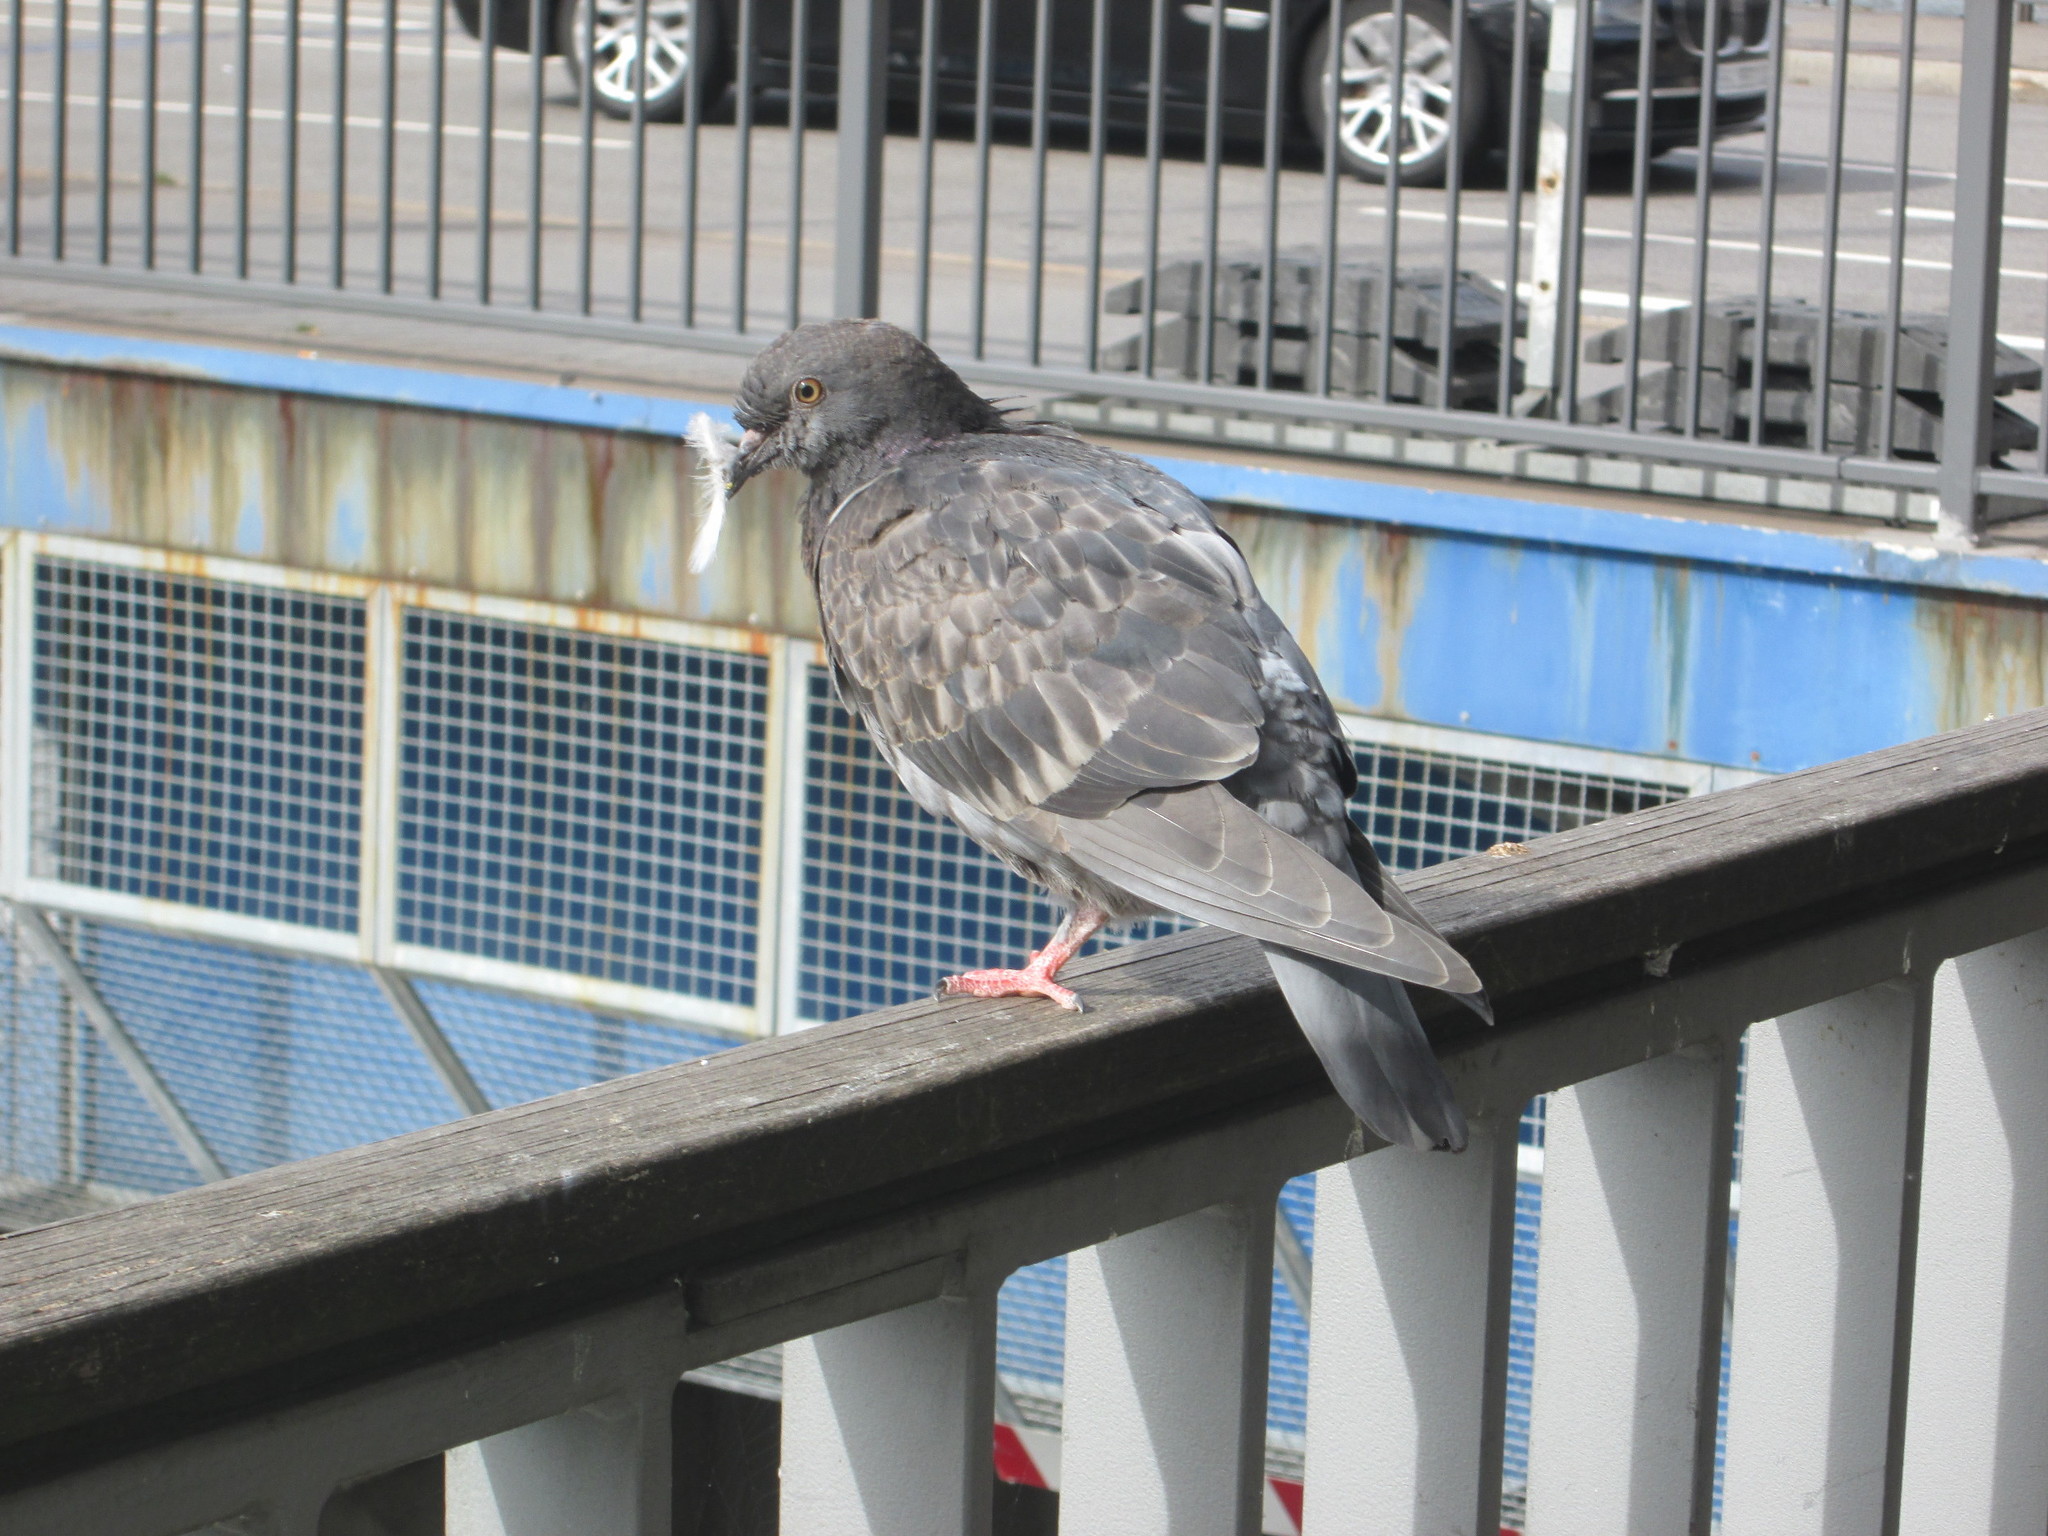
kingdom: Animalia
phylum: Chordata
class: Aves
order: Columbiformes
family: Columbidae
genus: Columba
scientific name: Columba livia
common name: Rock pigeon
